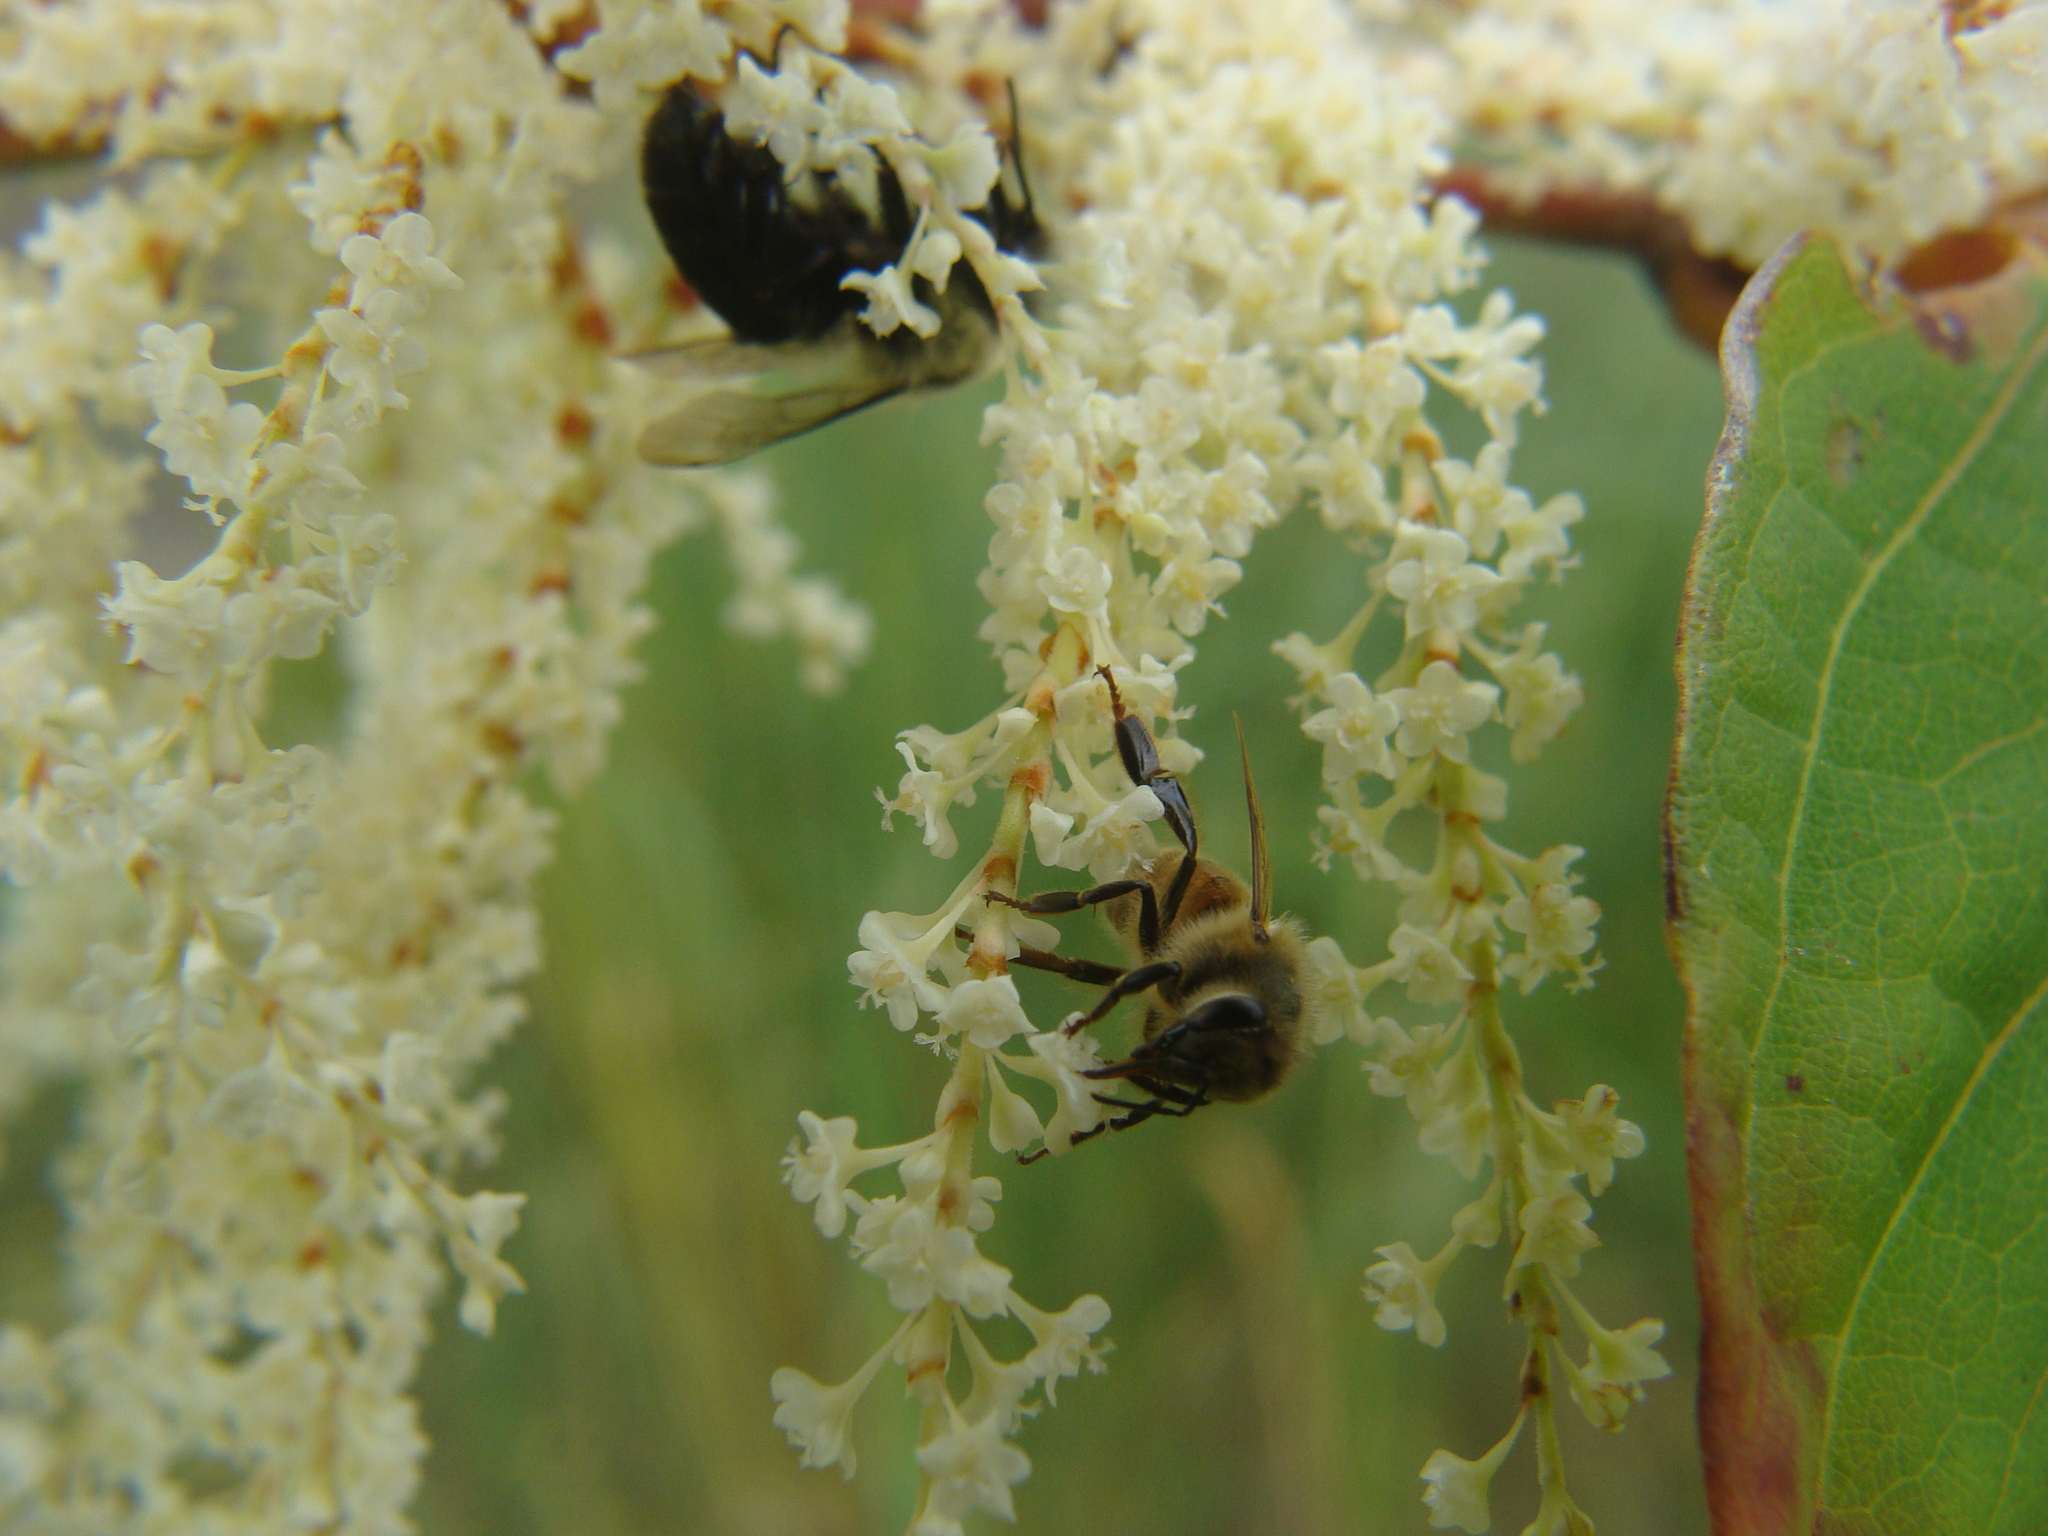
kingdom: Animalia
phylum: Arthropoda
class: Insecta
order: Hymenoptera
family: Apidae
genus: Bombus
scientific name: Bombus impatiens
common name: Common eastern bumble bee
